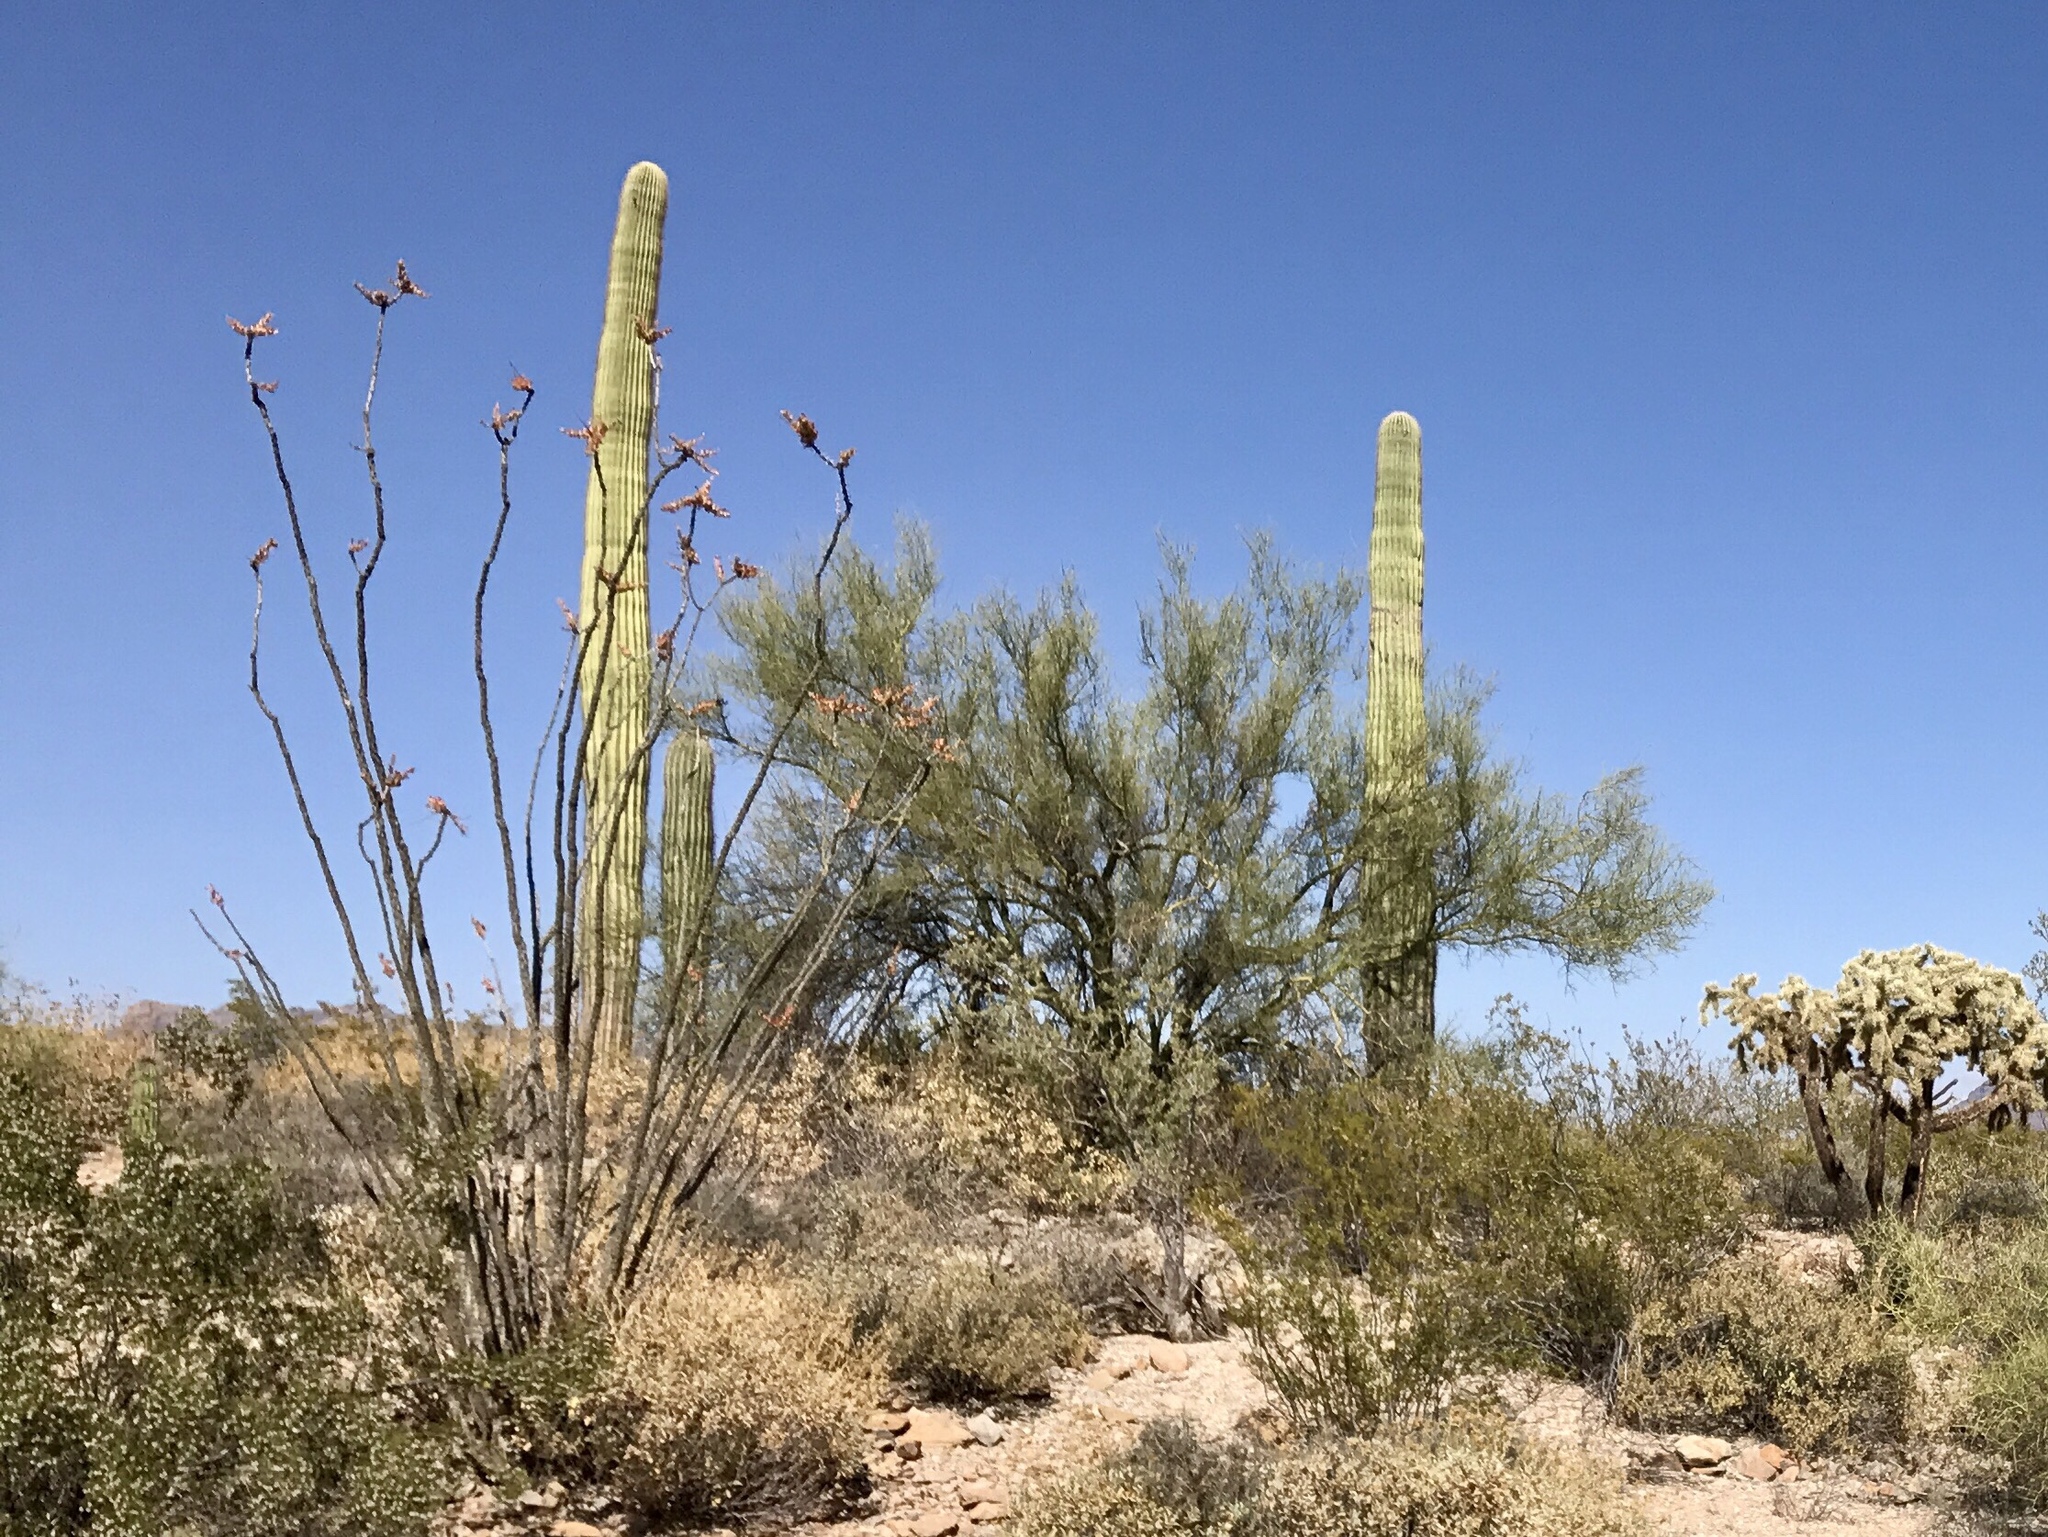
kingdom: Plantae
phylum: Tracheophyta
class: Magnoliopsida
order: Ericales
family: Fouquieriaceae
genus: Fouquieria
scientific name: Fouquieria splendens
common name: Vine-cactus
